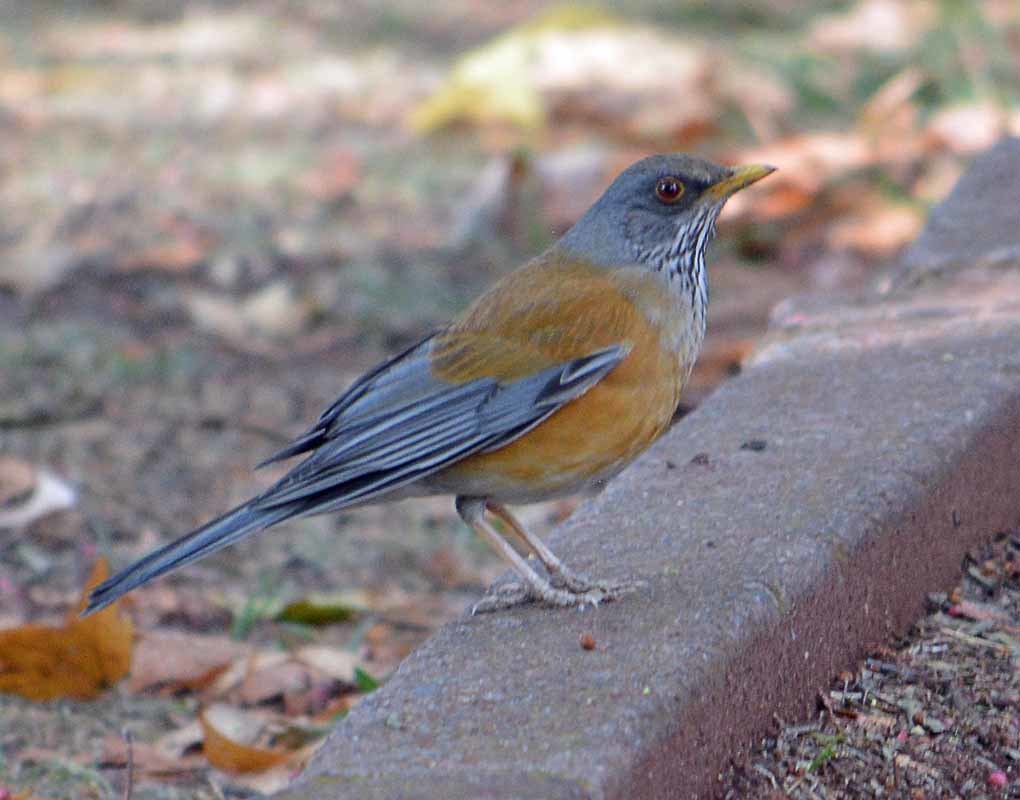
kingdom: Animalia
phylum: Chordata
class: Aves
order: Passeriformes
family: Turdidae
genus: Turdus
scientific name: Turdus rufopalliatus
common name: Rufous-backed robin
